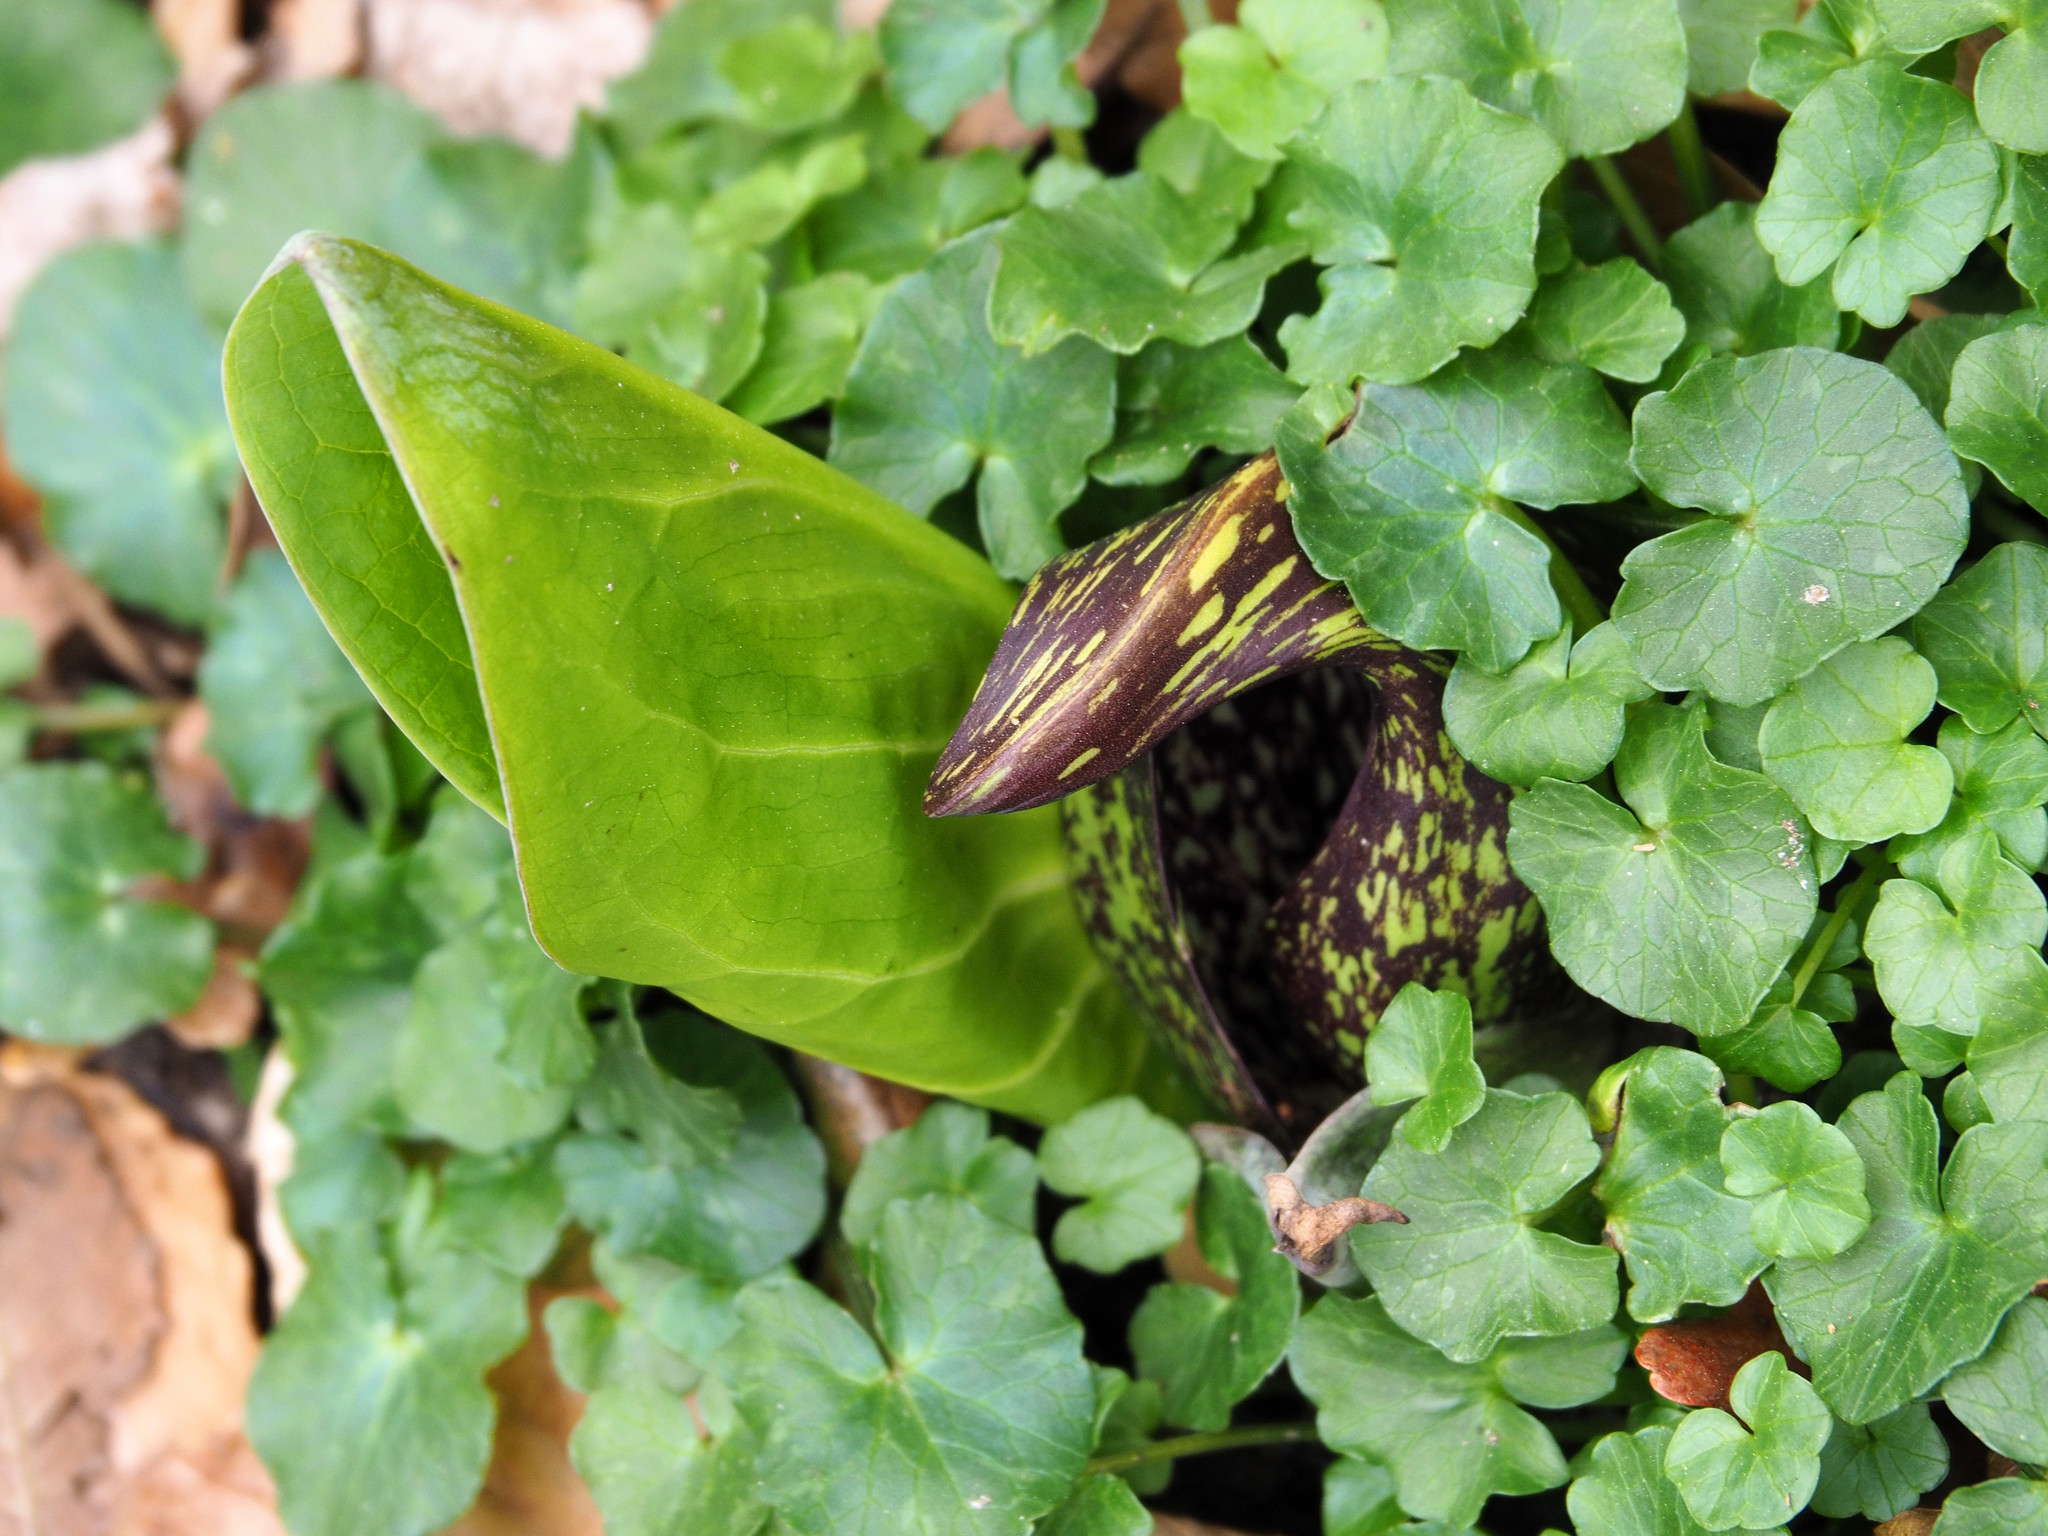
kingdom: Plantae
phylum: Tracheophyta
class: Liliopsida
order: Alismatales
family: Araceae
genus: Symplocarpus
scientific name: Symplocarpus foetidus
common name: Eastern skunk cabbage
